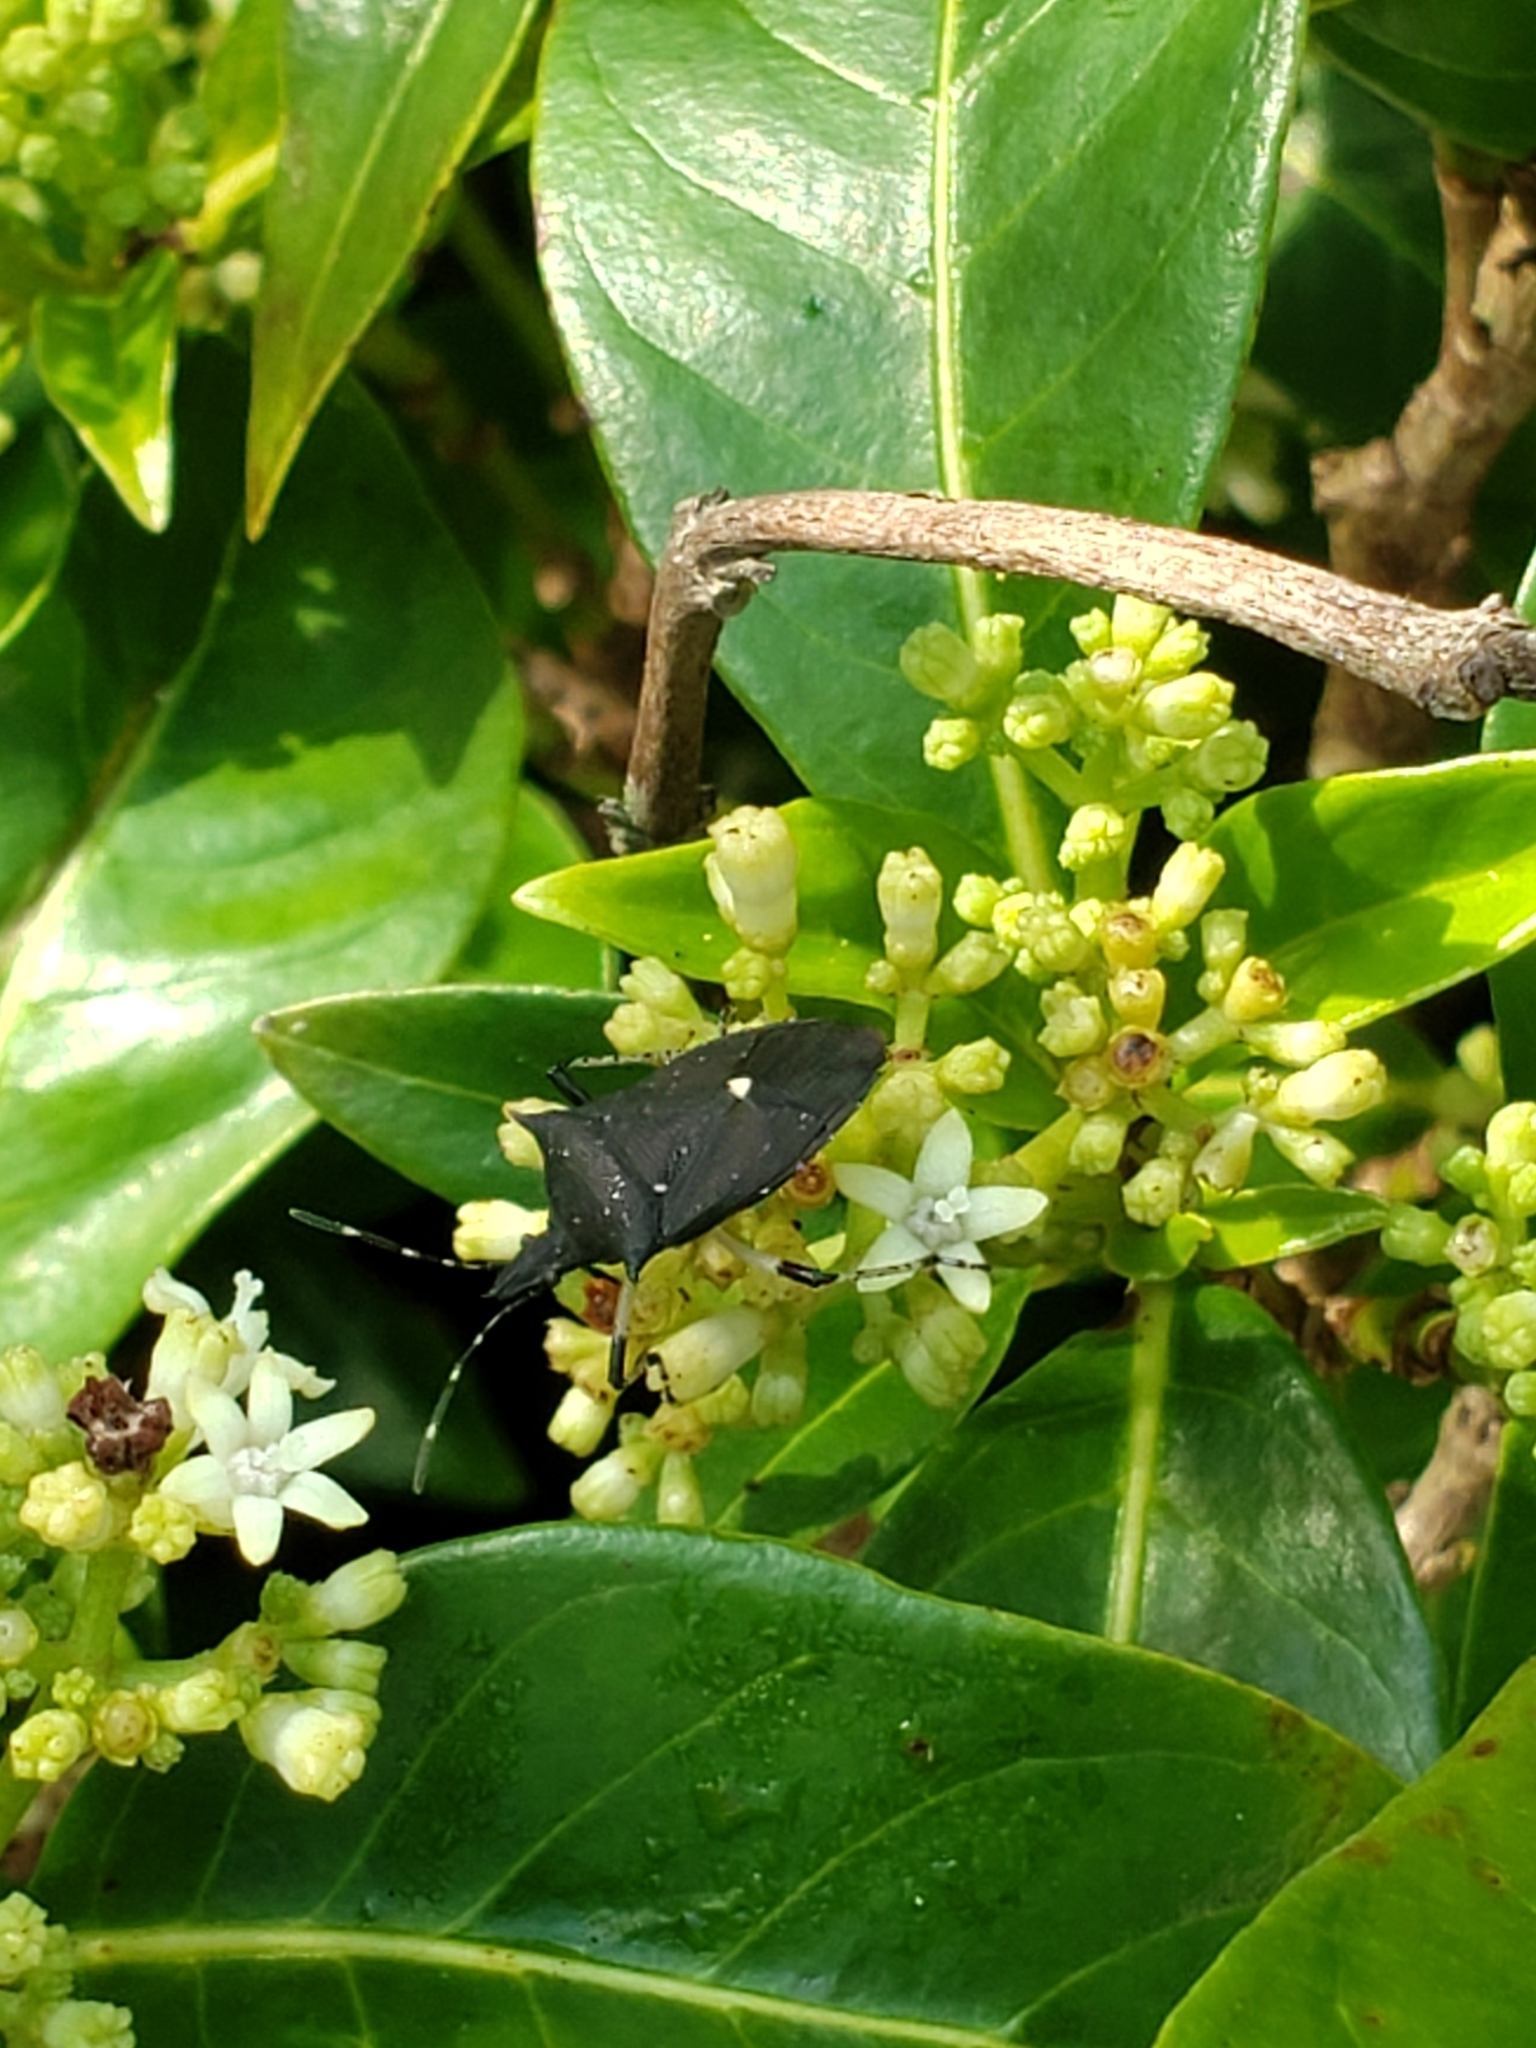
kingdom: Animalia
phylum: Arthropoda
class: Insecta
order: Hemiptera
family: Pentatomidae
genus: Proxys
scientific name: Proxys punctulatus
